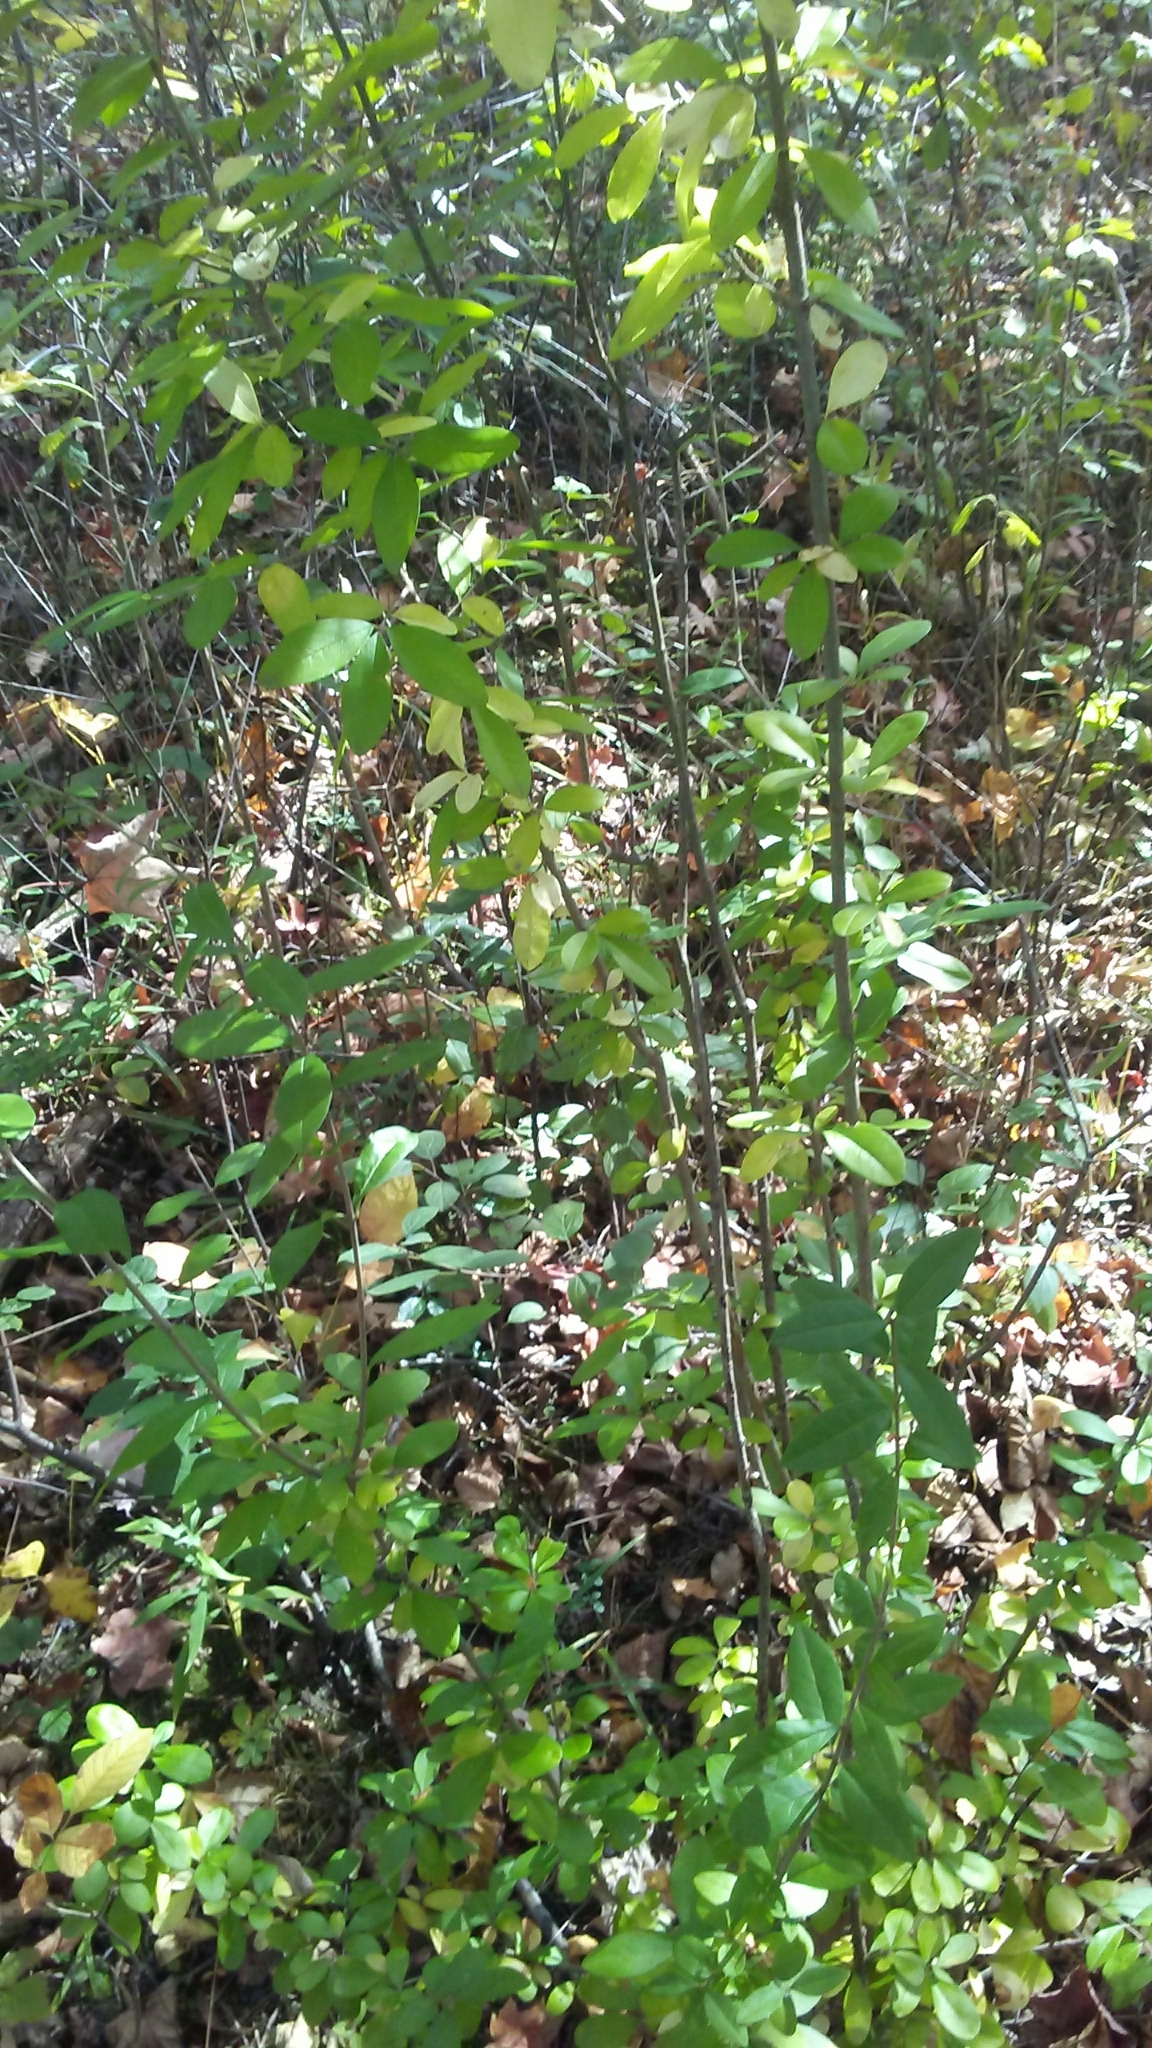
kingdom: Plantae
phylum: Tracheophyta
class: Magnoliopsida
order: Lamiales
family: Oleaceae
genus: Ligustrum
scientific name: Ligustrum obtusifolium
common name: Border privet
